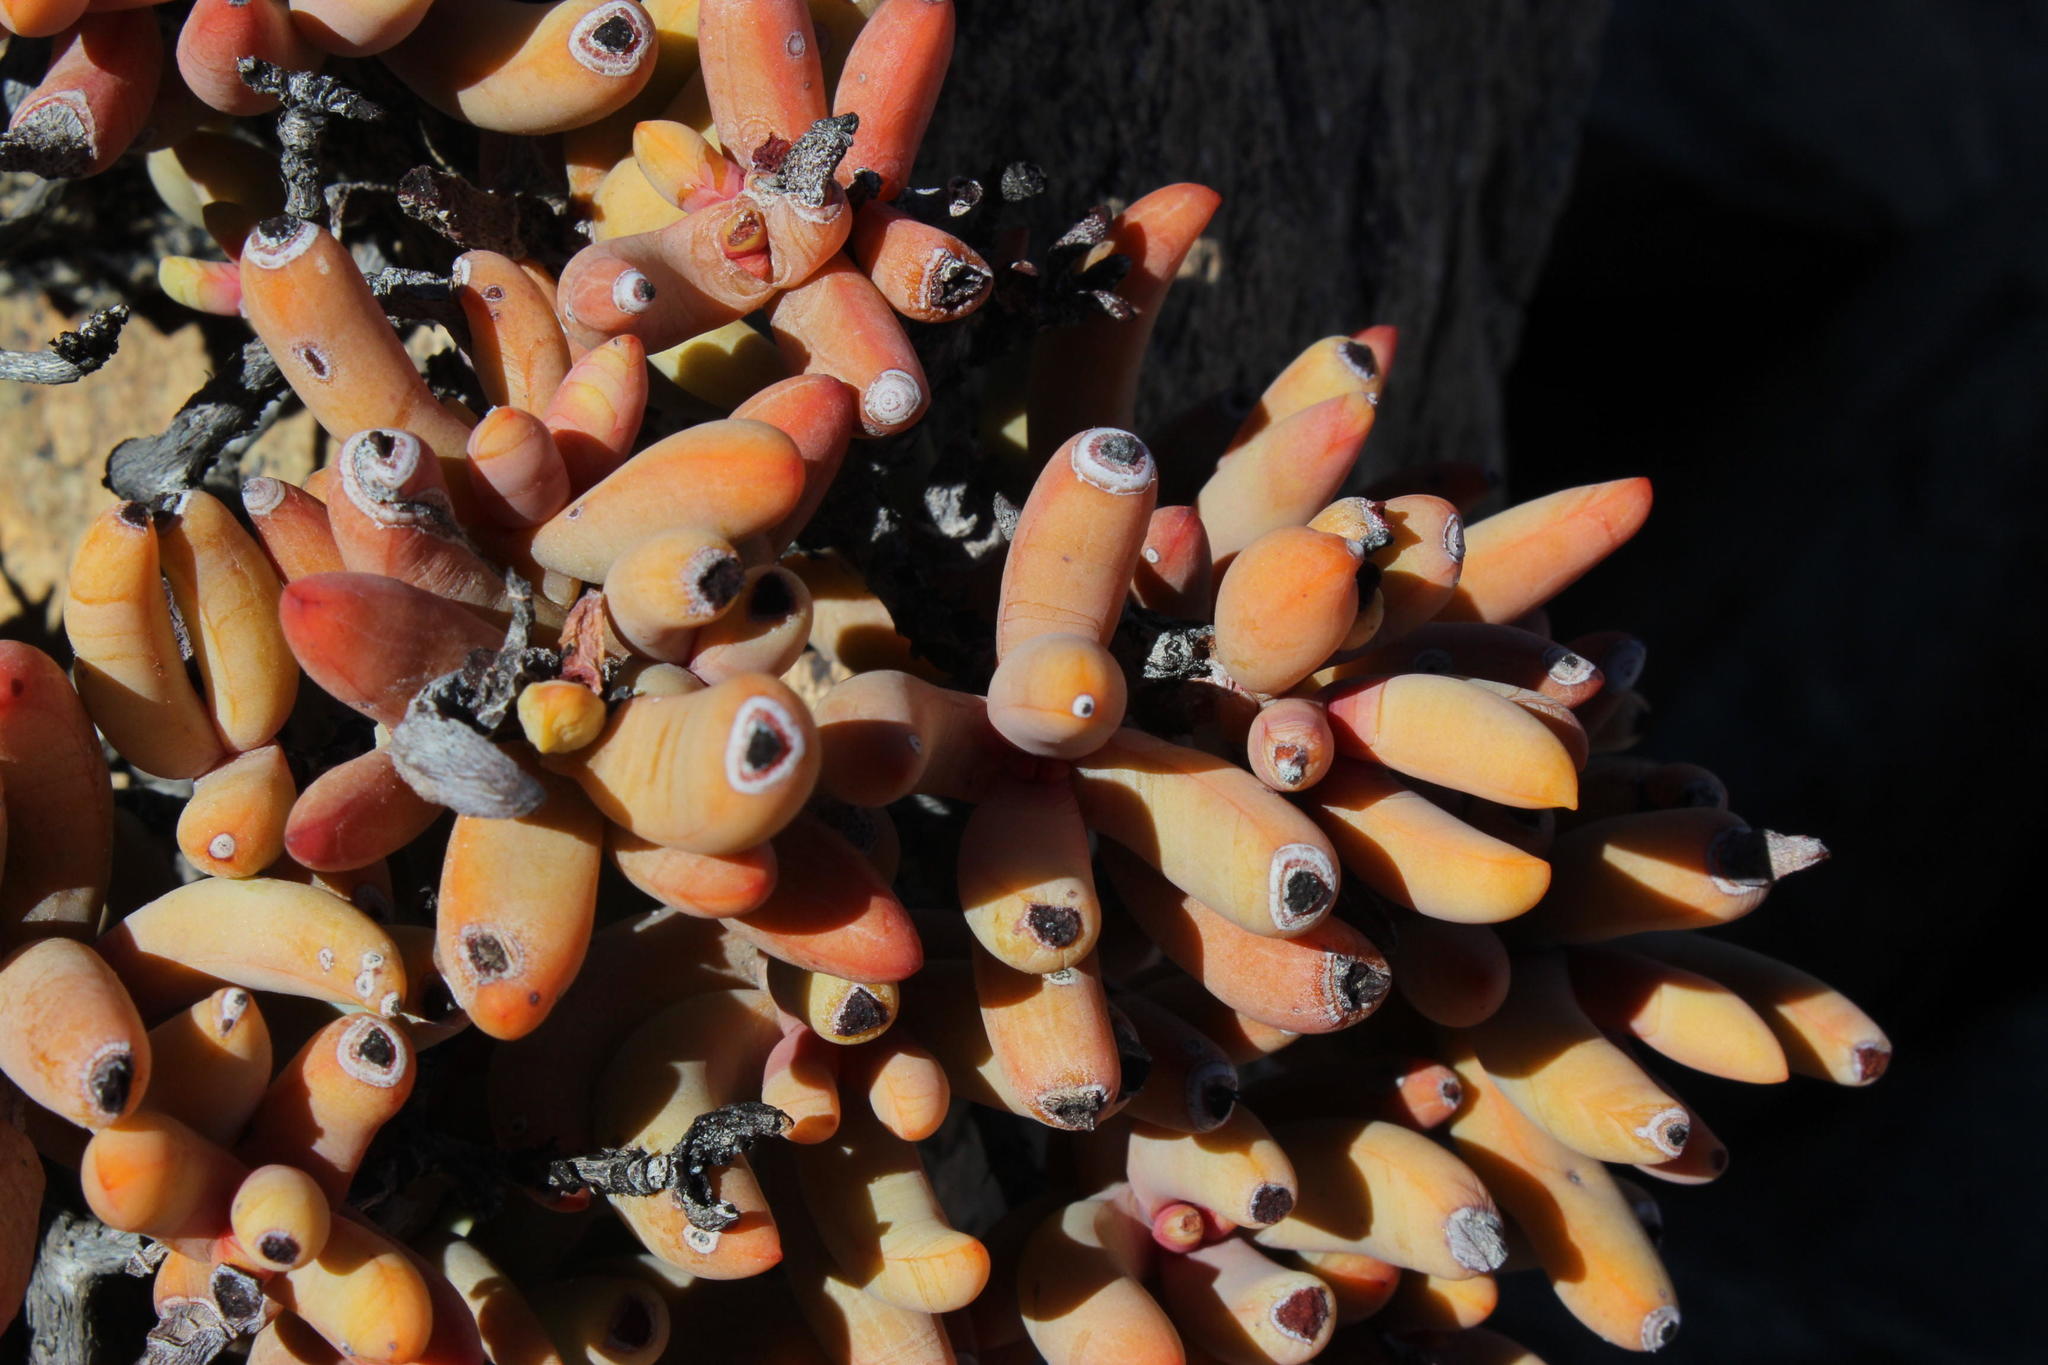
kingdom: Plantae
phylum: Tracheophyta
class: Magnoliopsida
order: Saxifragales
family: Crassulaceae
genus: Crassula
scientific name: Crassula brevifolia
